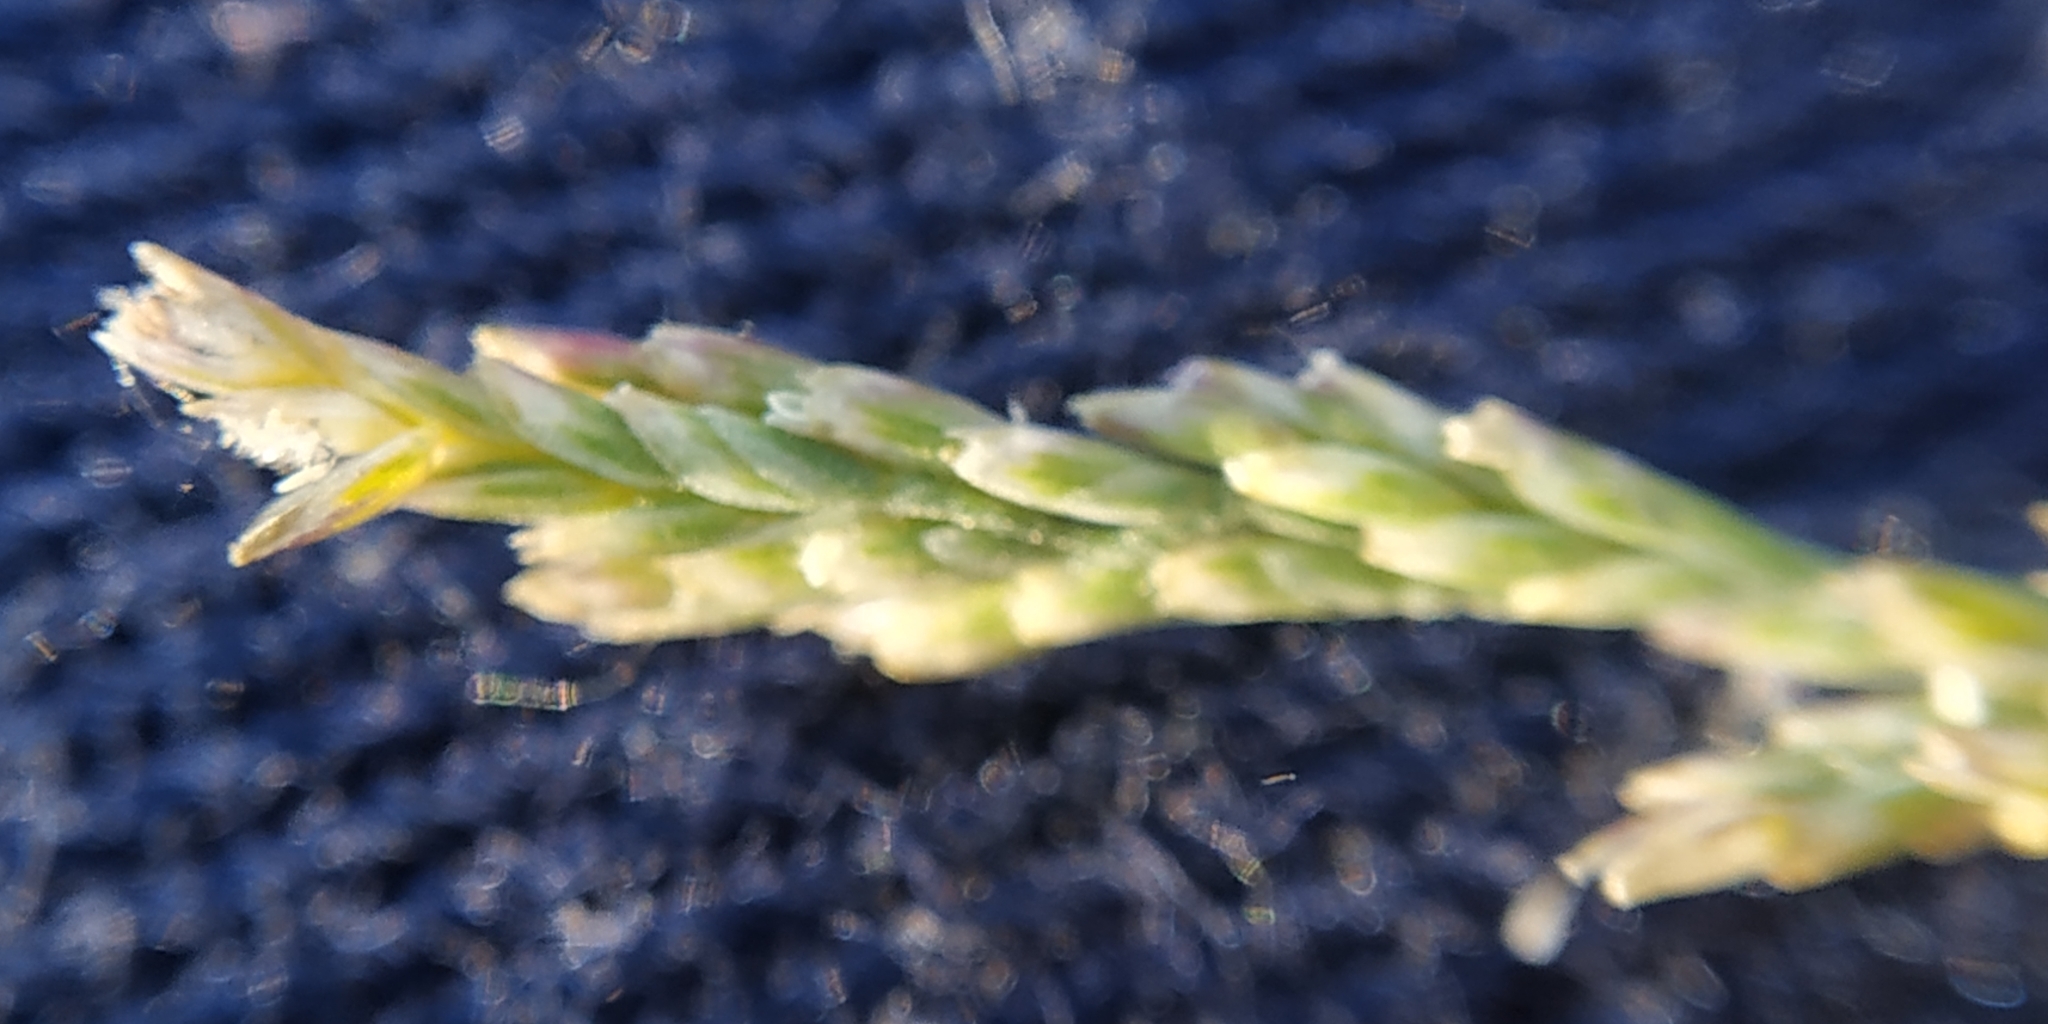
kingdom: Plantae
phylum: Tracheophyta
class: Liliopsida
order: Poales
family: Poaceae
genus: Puccinellia
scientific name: Puccinellia hauptiana
